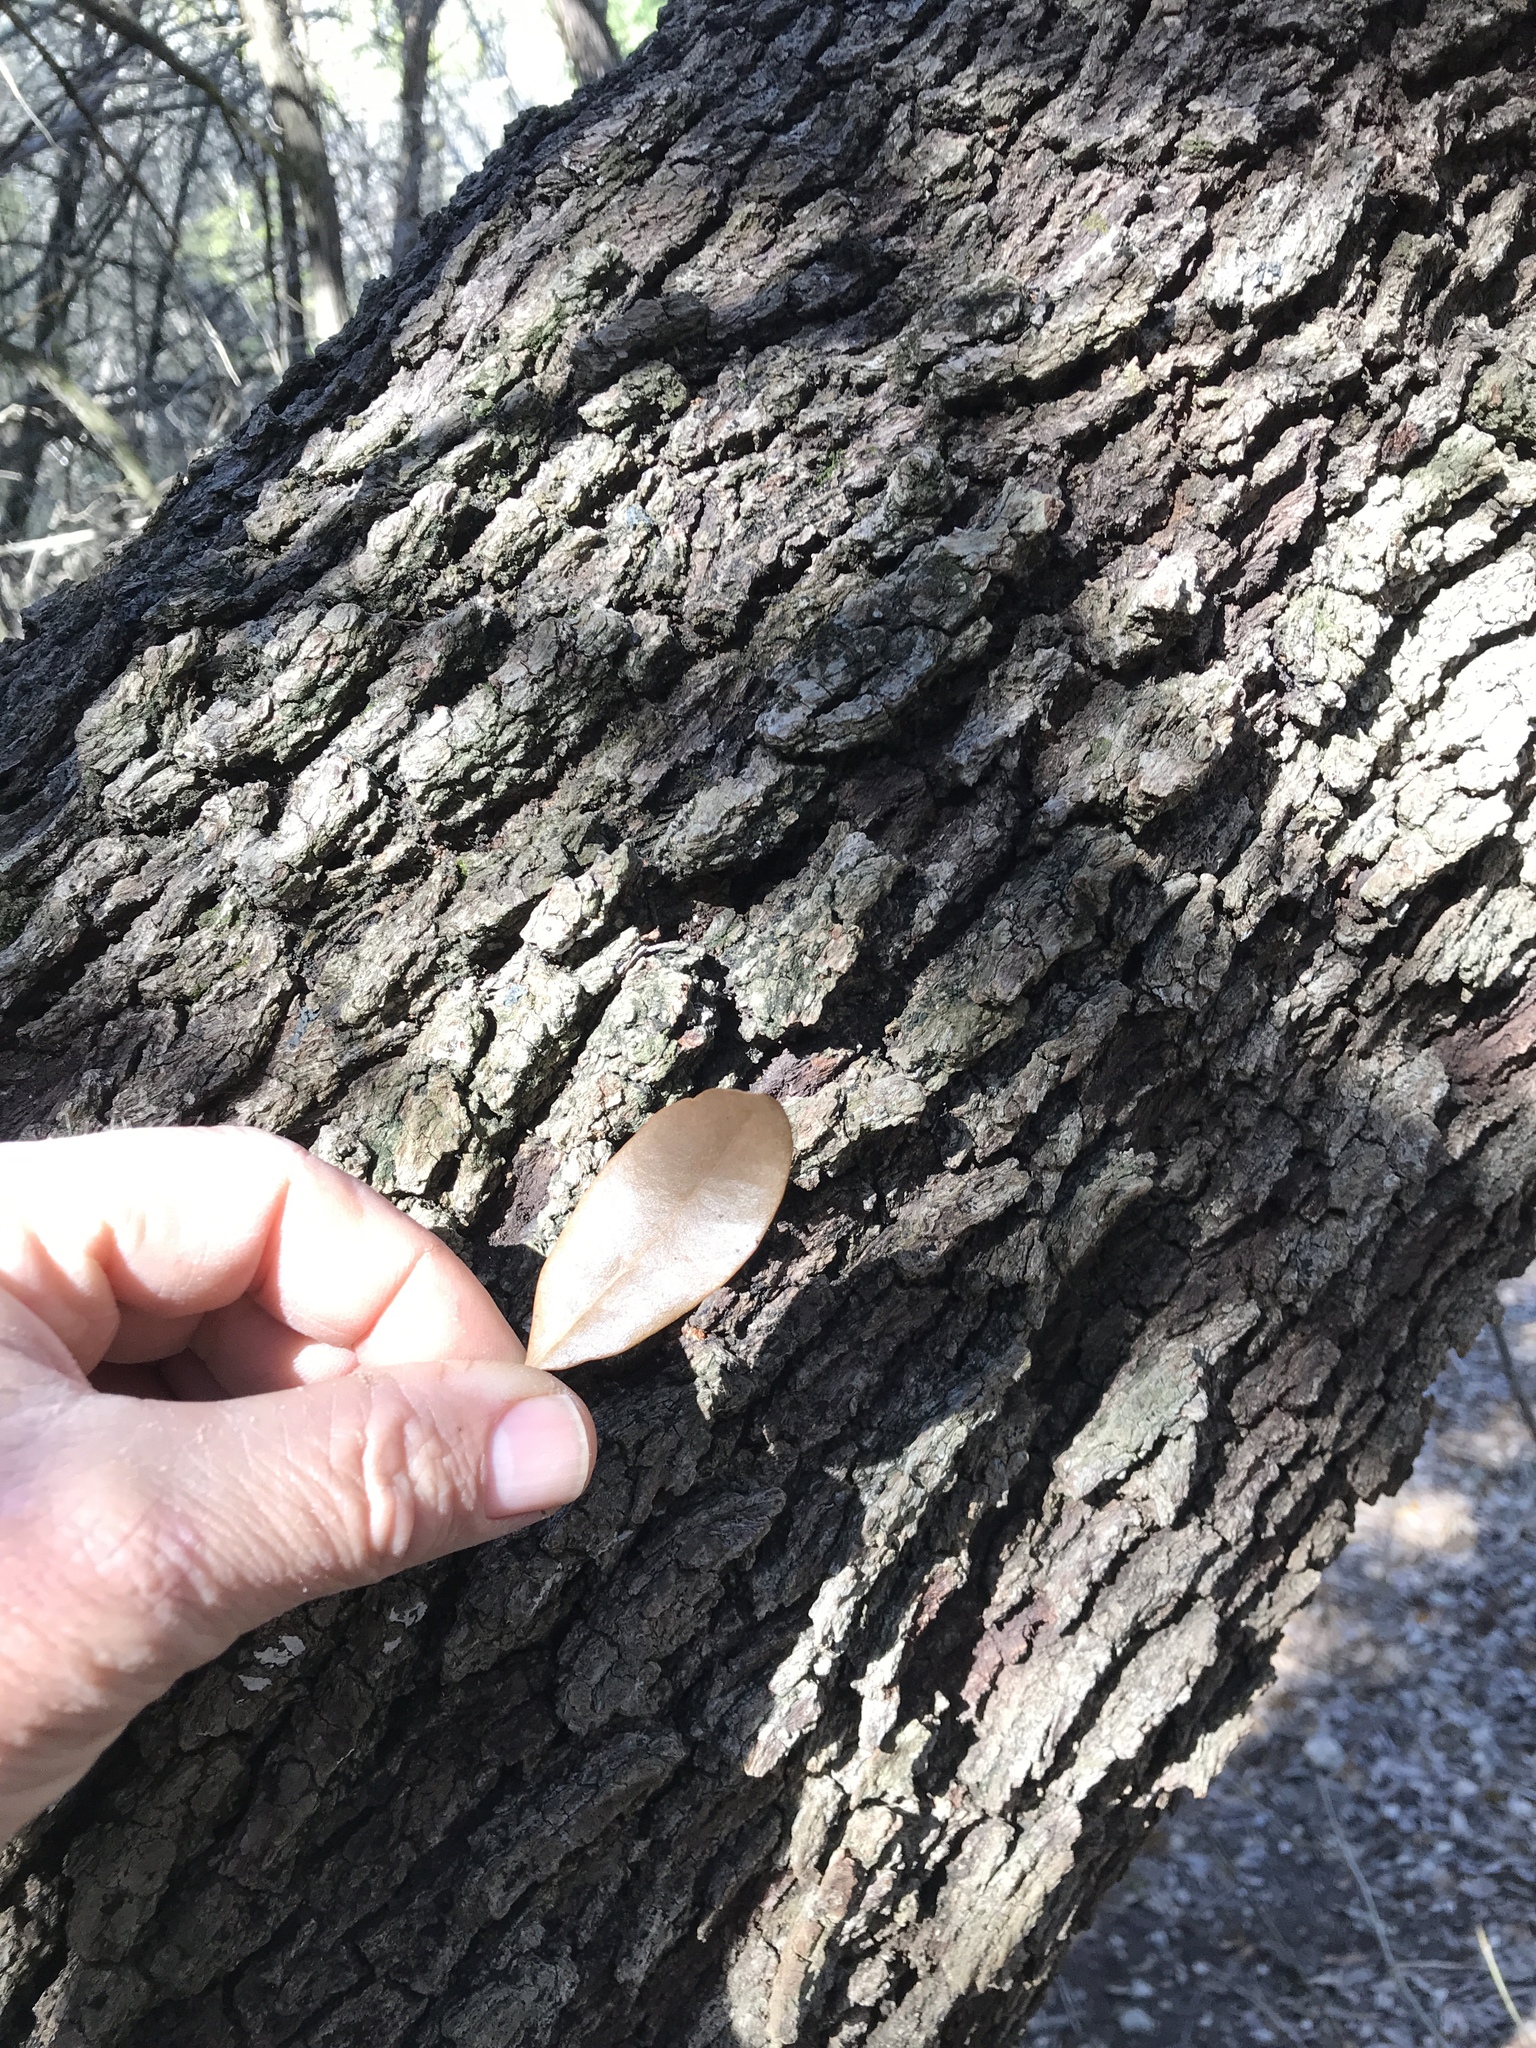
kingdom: Plantae
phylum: Tracheophyta
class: Magnoliopsida
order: Fagales
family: Fagaceae
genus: Quercus
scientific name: Quercus fusiformis
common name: Texas live oak
